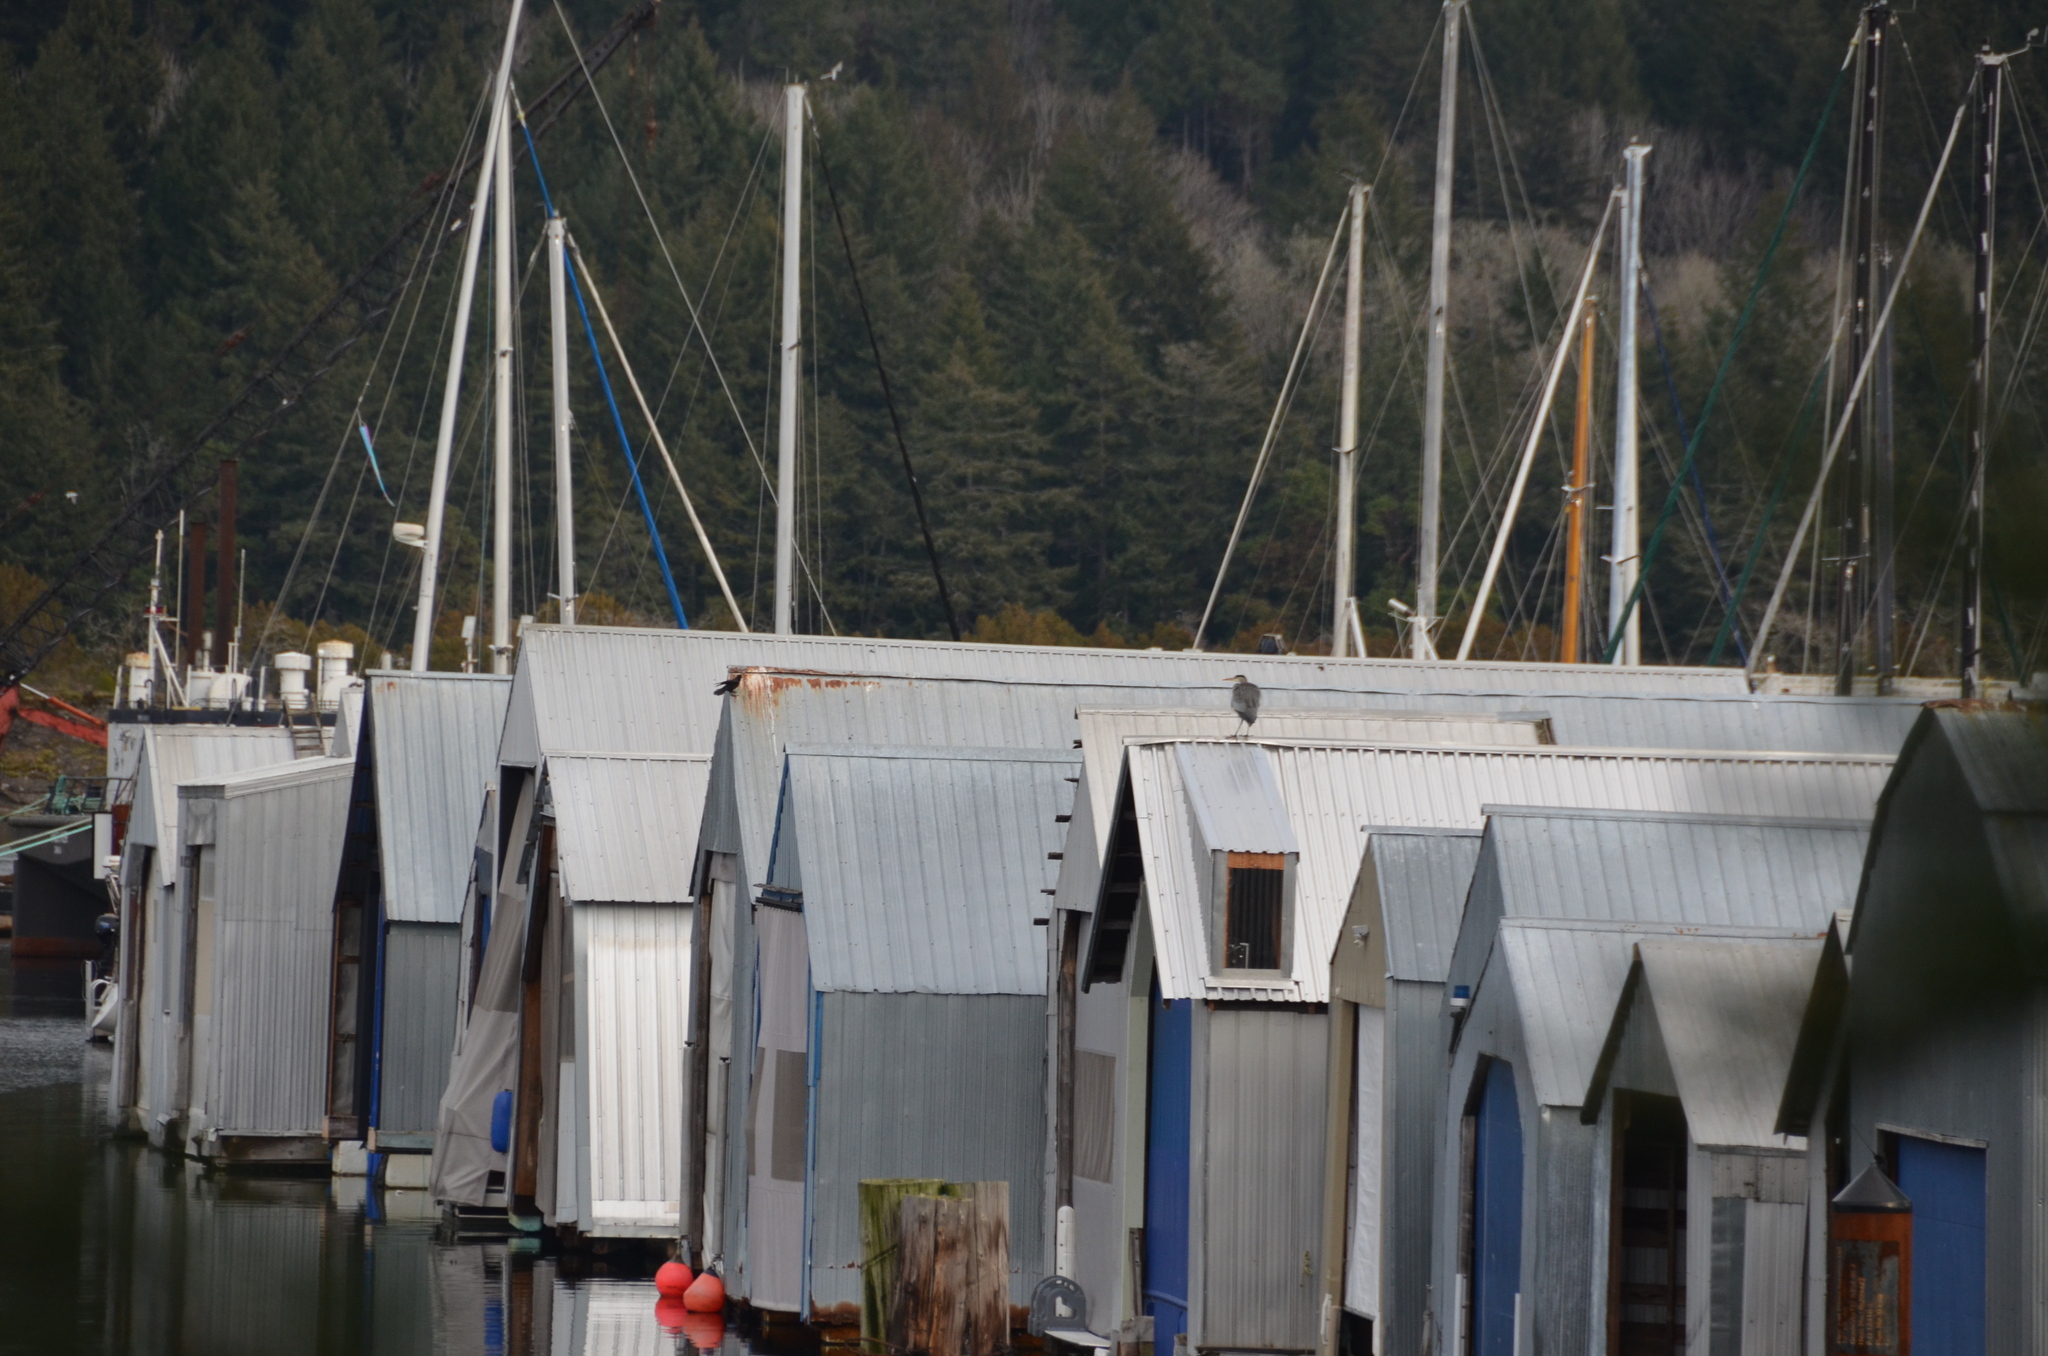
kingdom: Animalia
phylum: Chordata
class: Aves
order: Pelecaniformes
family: Ardeidae
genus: Ardea
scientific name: Ardea herodias
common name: Great blue heron
